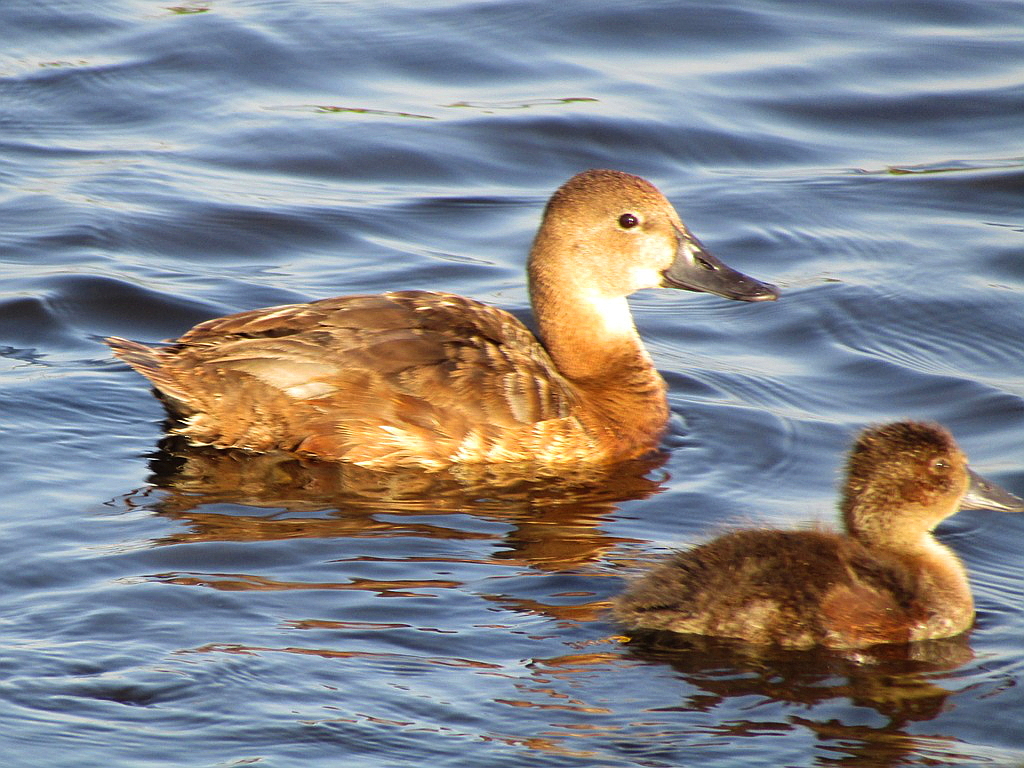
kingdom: Animalia
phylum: Chordata
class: Aves
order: Anseriformes
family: Anatidae
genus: Aythya
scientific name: Aythya ferina
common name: Common pochard
